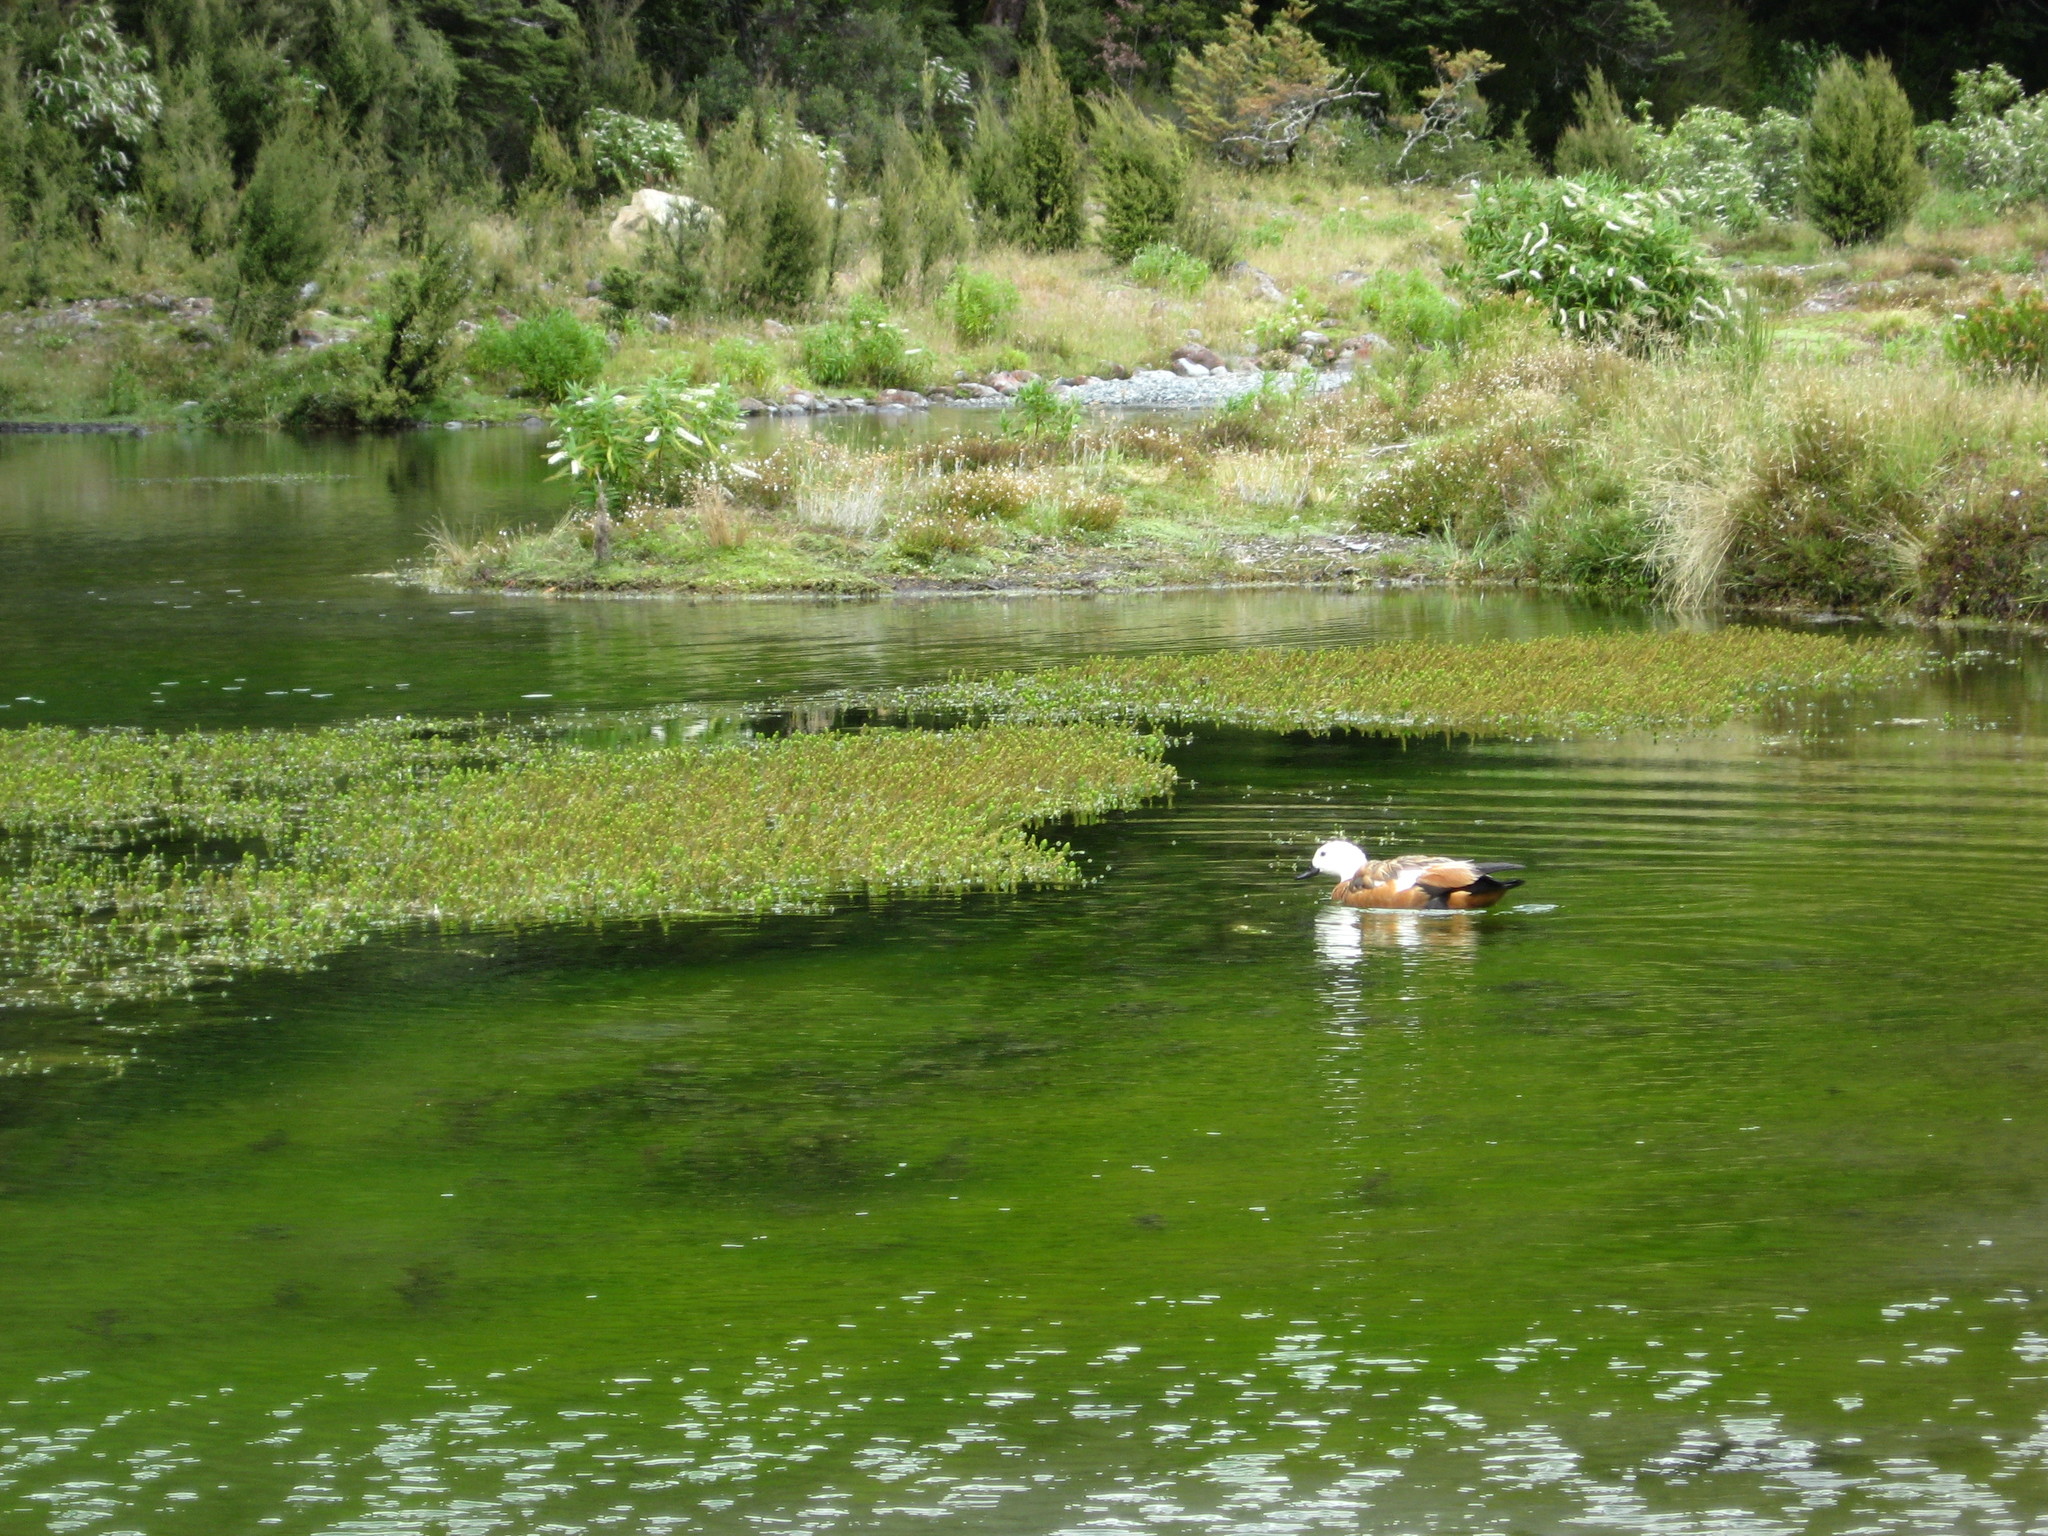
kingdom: Animalia
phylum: Chordata
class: Aves
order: Anseriformes
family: Anatidae
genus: Tadorna
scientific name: Tadorna variegata
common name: Paradise shelduck
